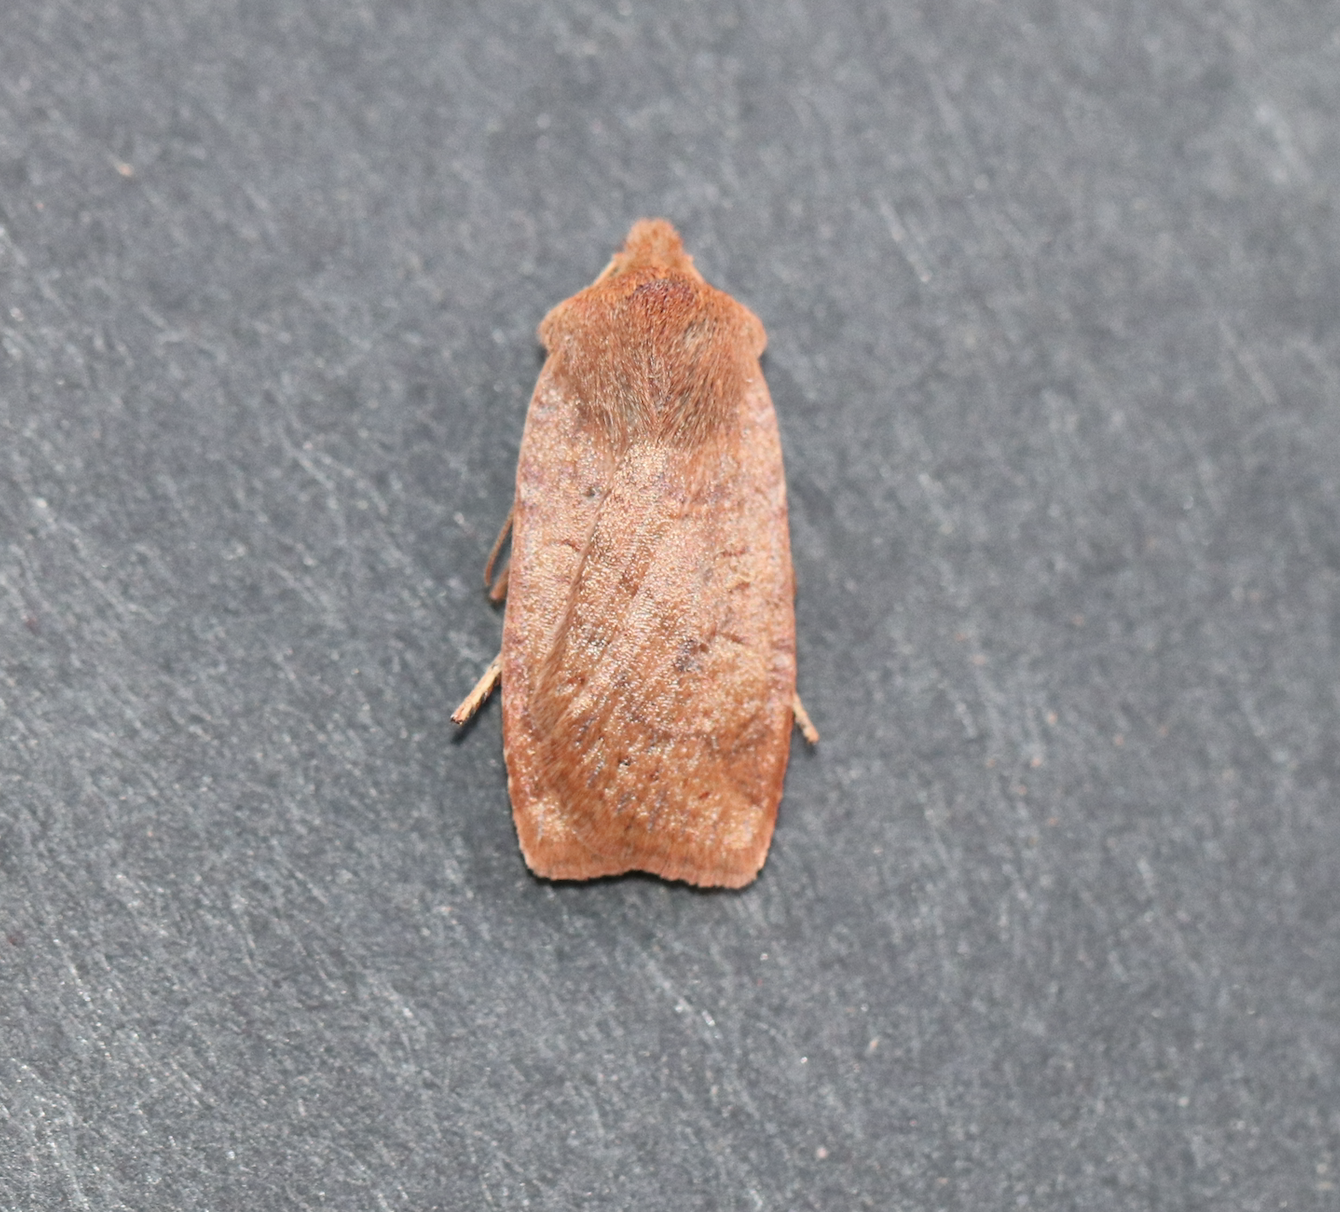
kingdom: Animalia
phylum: Arthropoda
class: Insecta
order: Lepidoptera
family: Noctuidae
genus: Conistra
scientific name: Conistra vaccinii
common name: Chestnut
